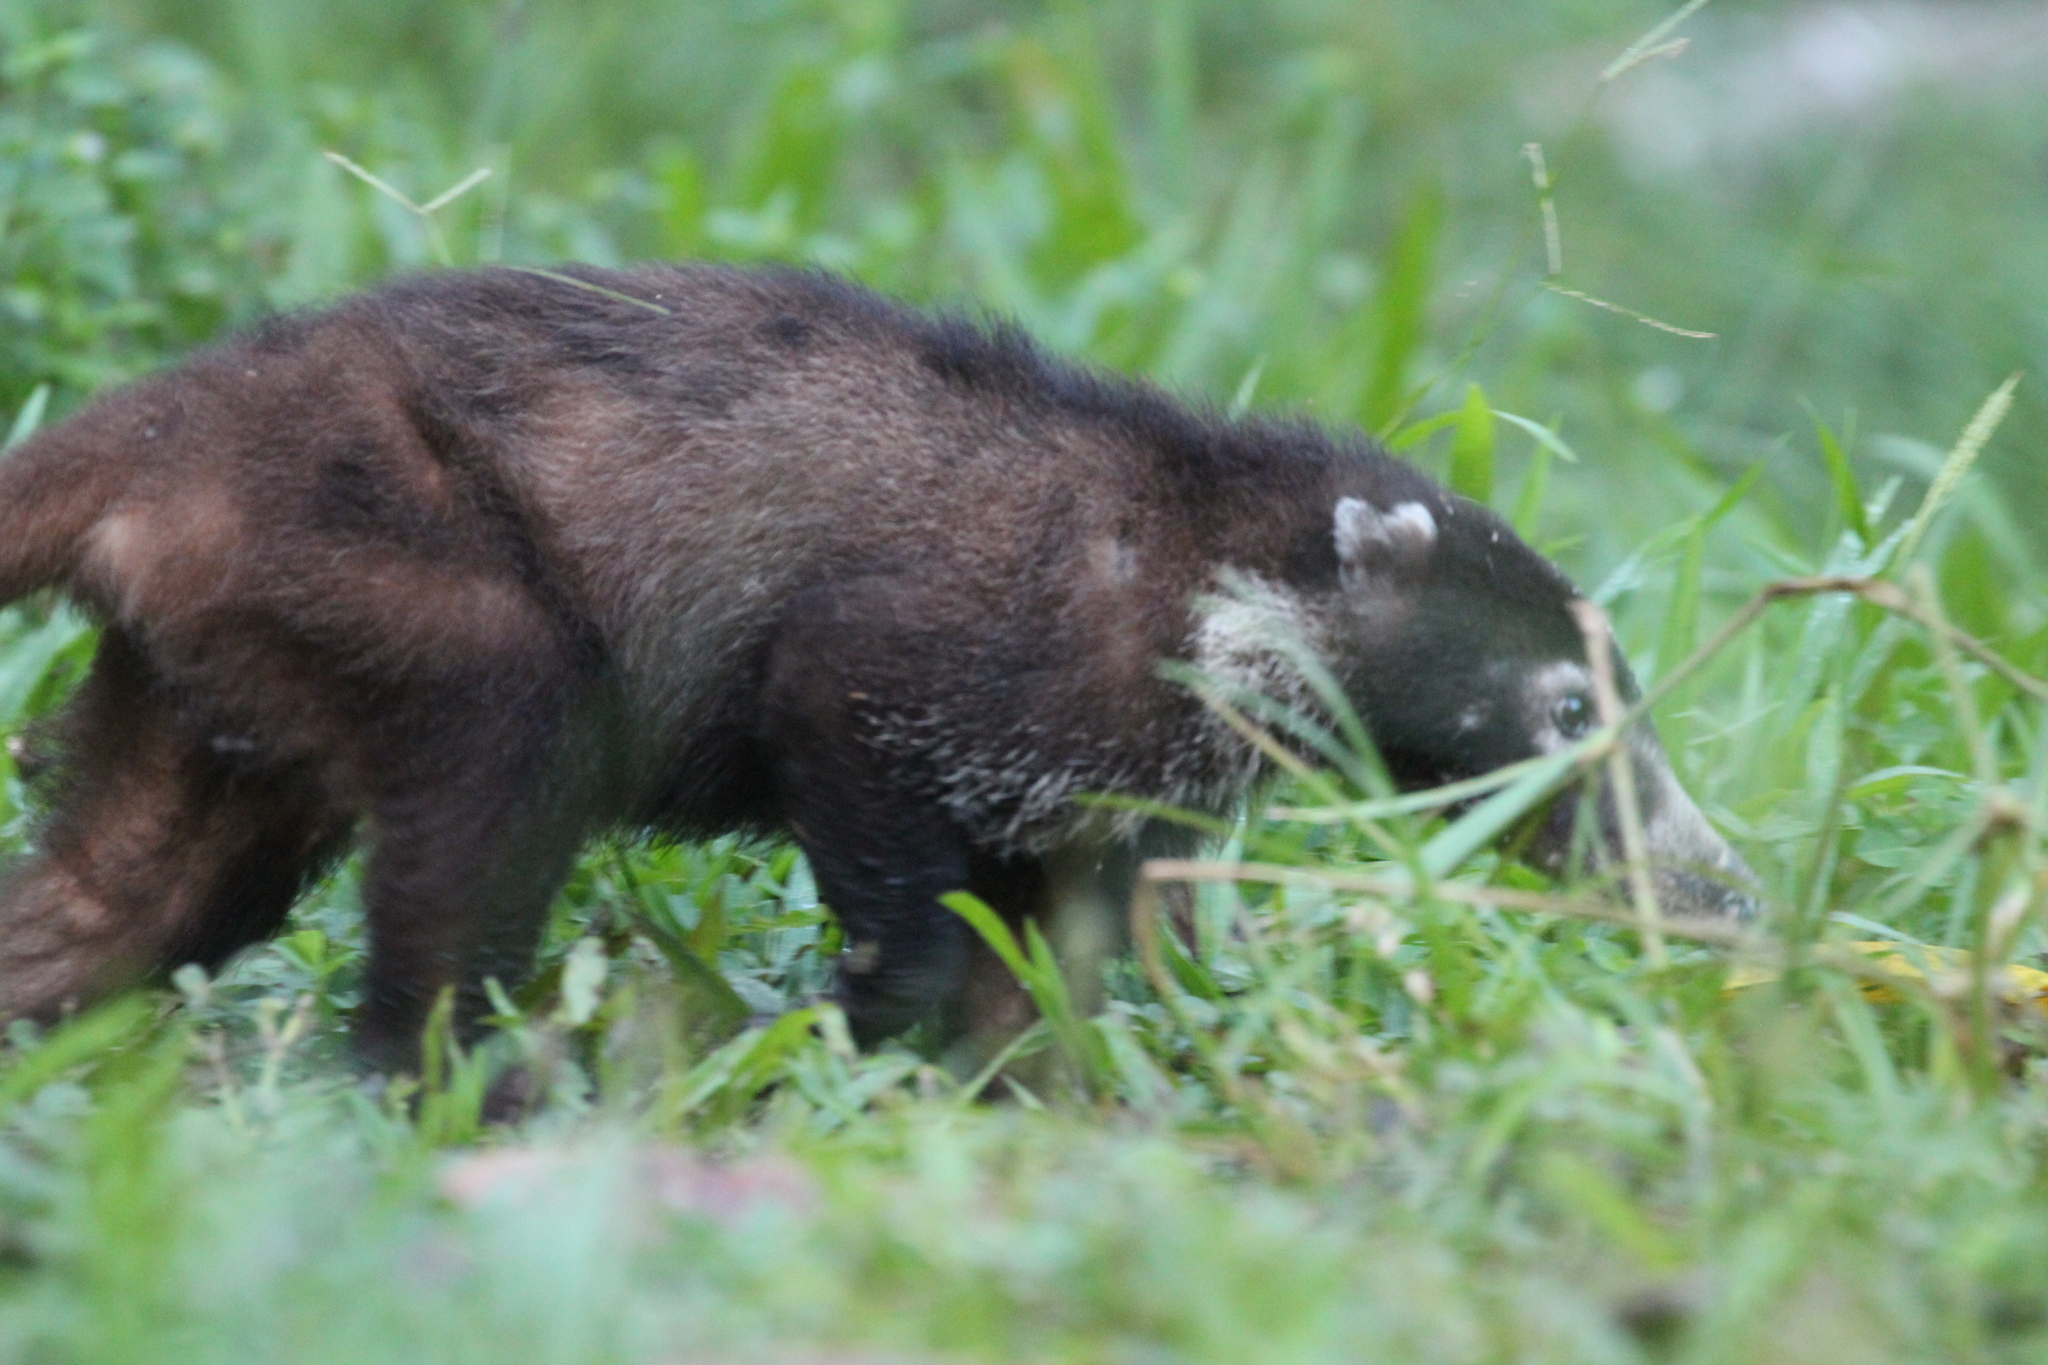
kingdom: Animalia
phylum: Chordata
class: Mammalia
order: Carnivora
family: Procyonidae
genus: Nasua
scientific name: Nasua narica
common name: White-nosed coati
